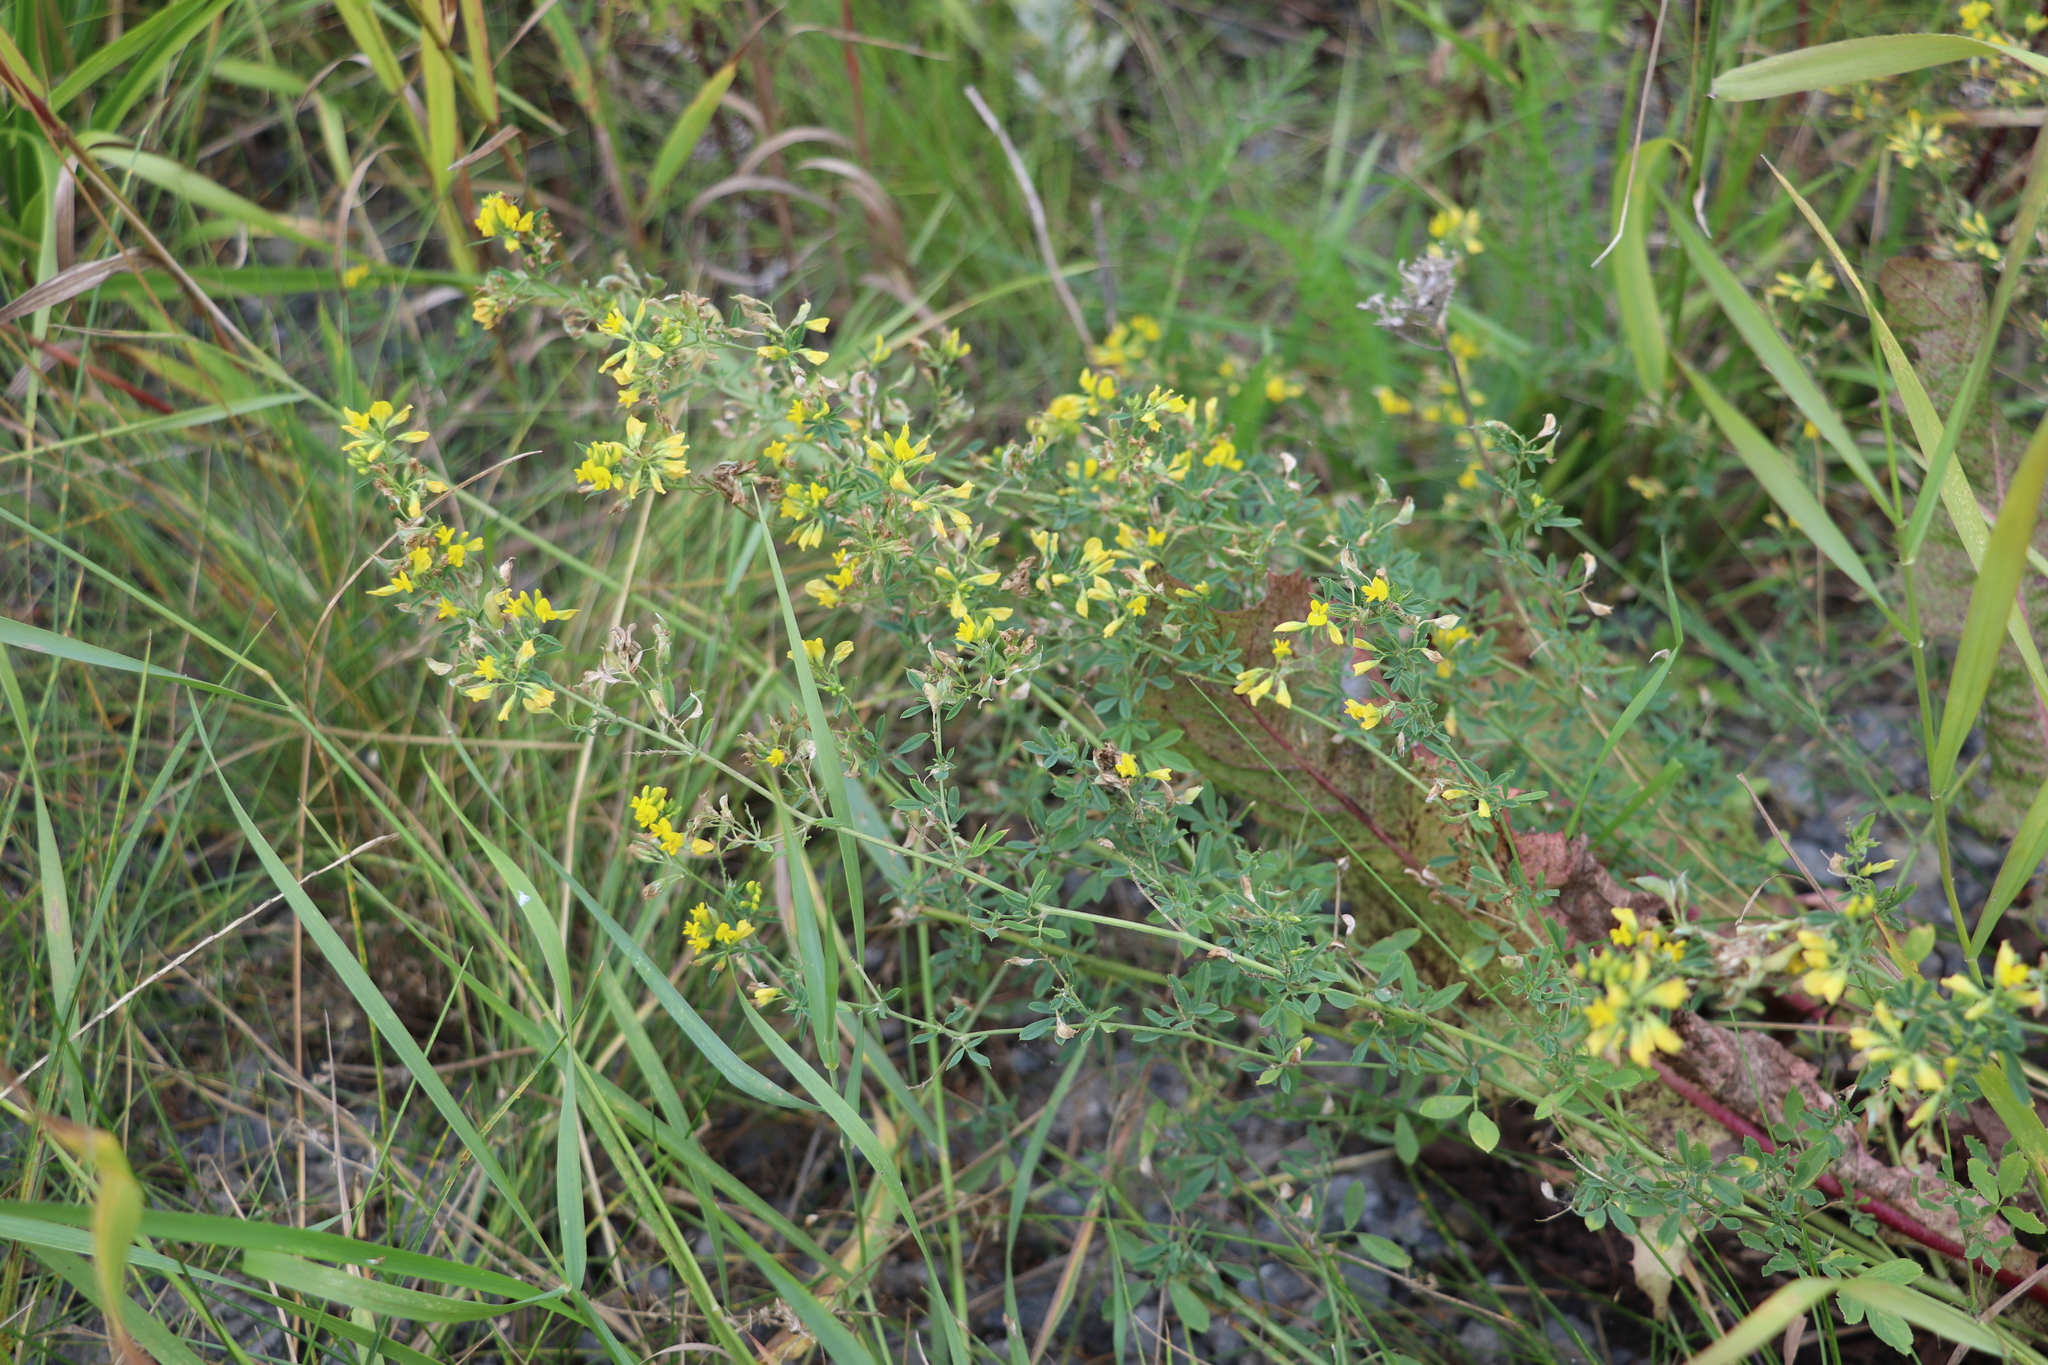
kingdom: Plantae
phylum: Tracheophyta
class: Magnoliopsida
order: Fabales
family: Fabaceae
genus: Medicago
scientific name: Medicago falcata
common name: Sickle medick
